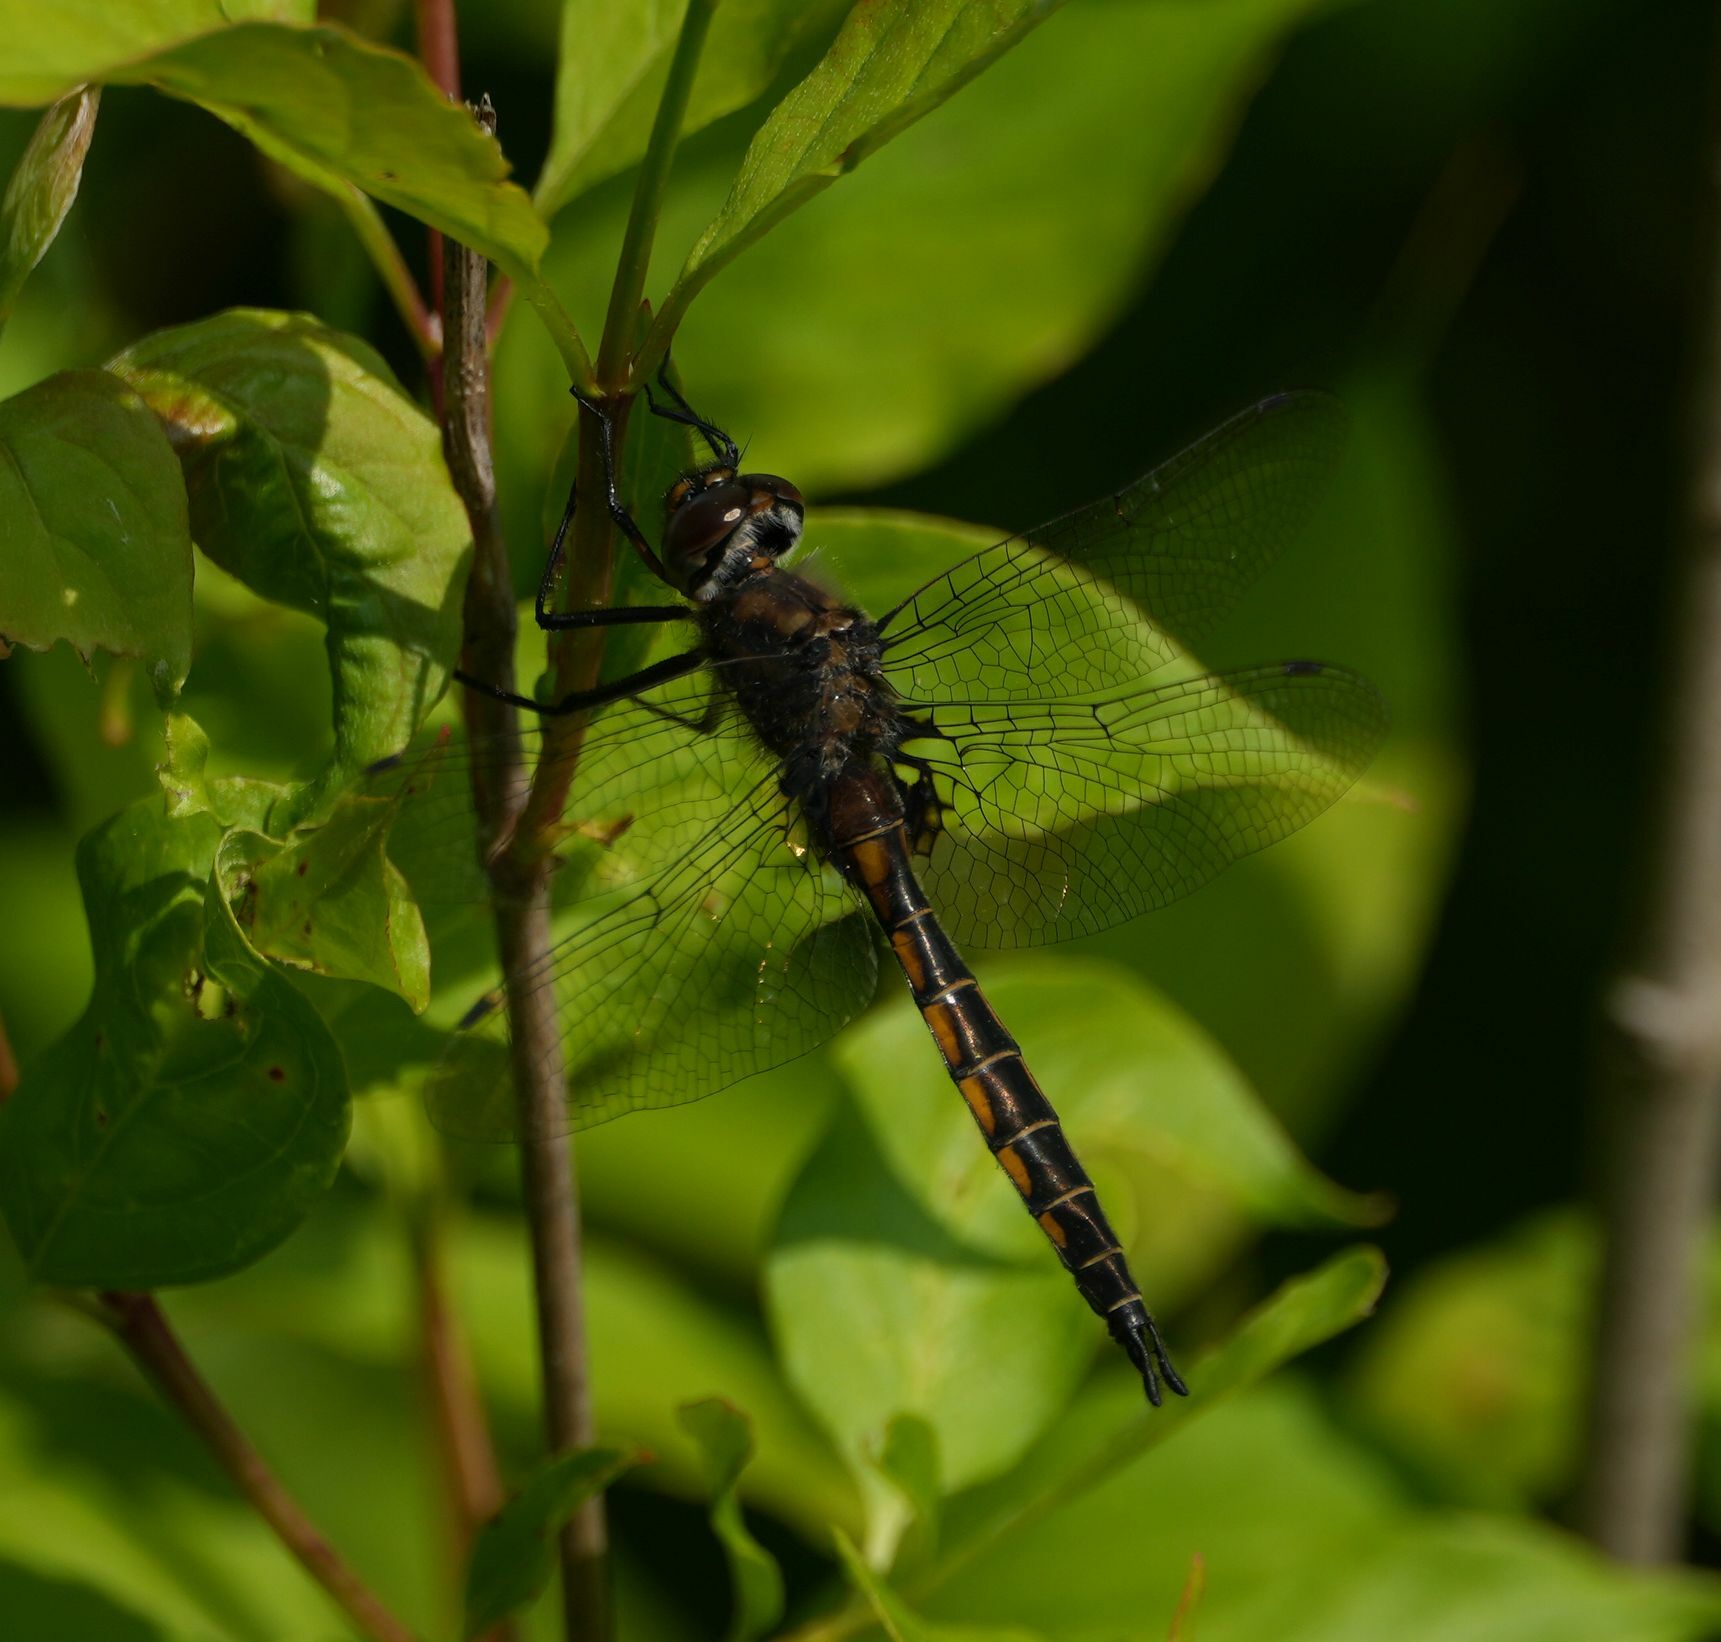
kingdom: Animalia
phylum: Arthropoda
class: Insecta
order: Odonata
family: Corduliidae
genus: Epitheca
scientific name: Epitheca spinigera
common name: Spiny baskettail
